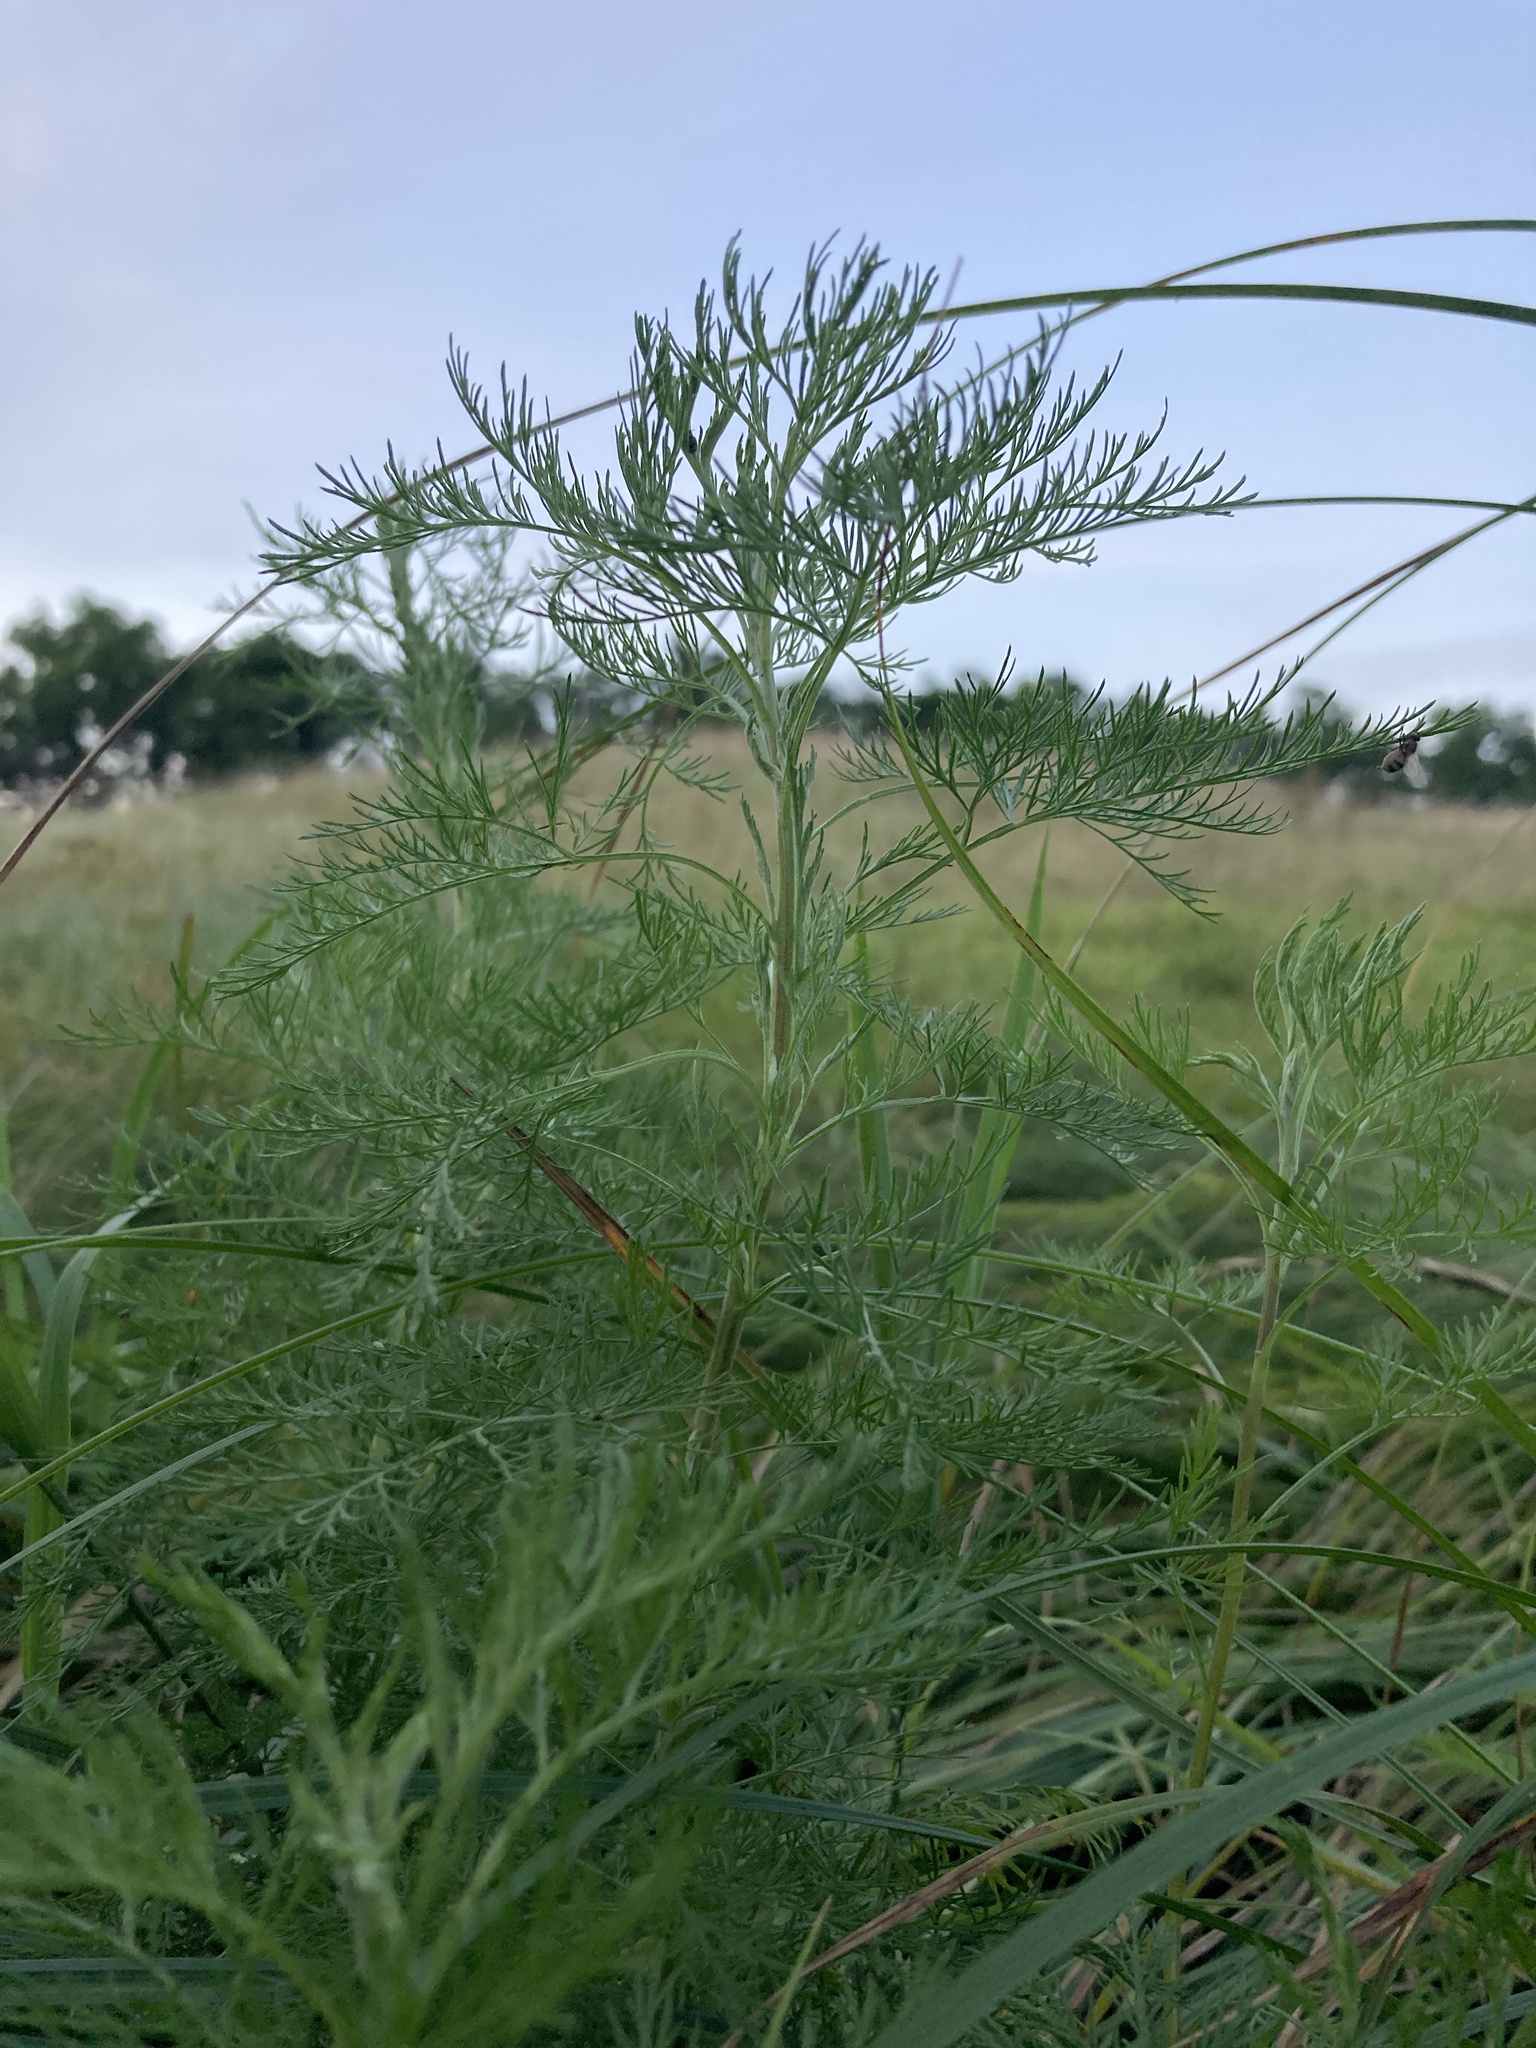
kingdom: Plantae
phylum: Tracheophyta
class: Magnoliopsida
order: Asterales
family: Asteraceae
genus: Artemisia
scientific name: Artemisia abrotanum
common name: Southernwood
